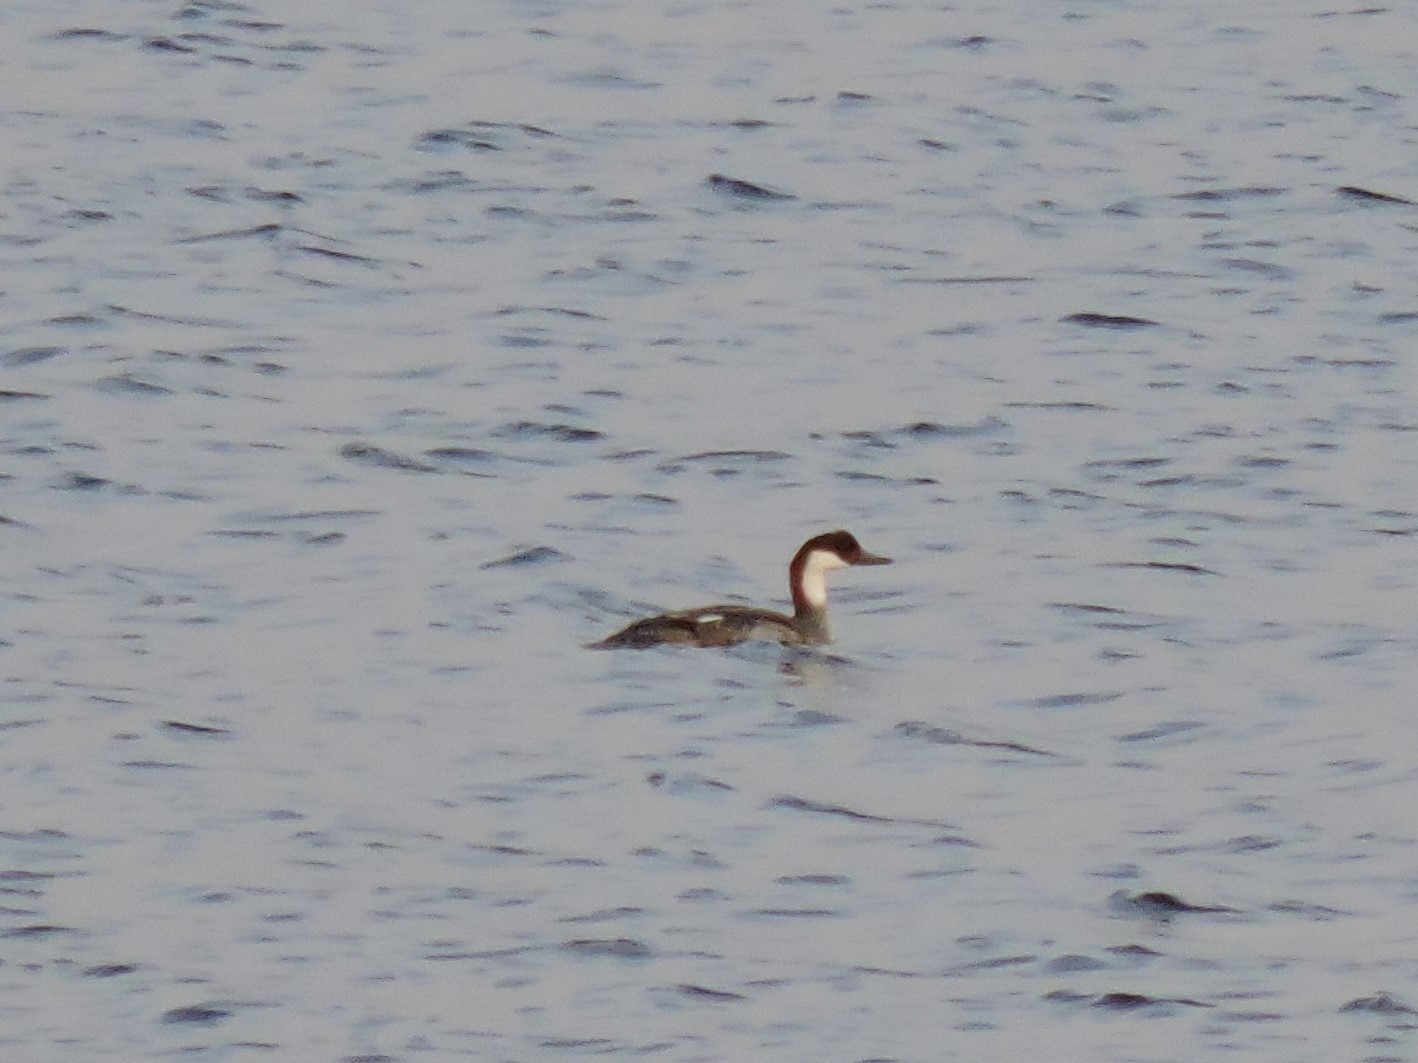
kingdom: Animalia
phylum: Chordata
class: Aves
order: Anseriformes
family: Anatidae
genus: Mergellus
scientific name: Mergellus albellus
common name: Smew
